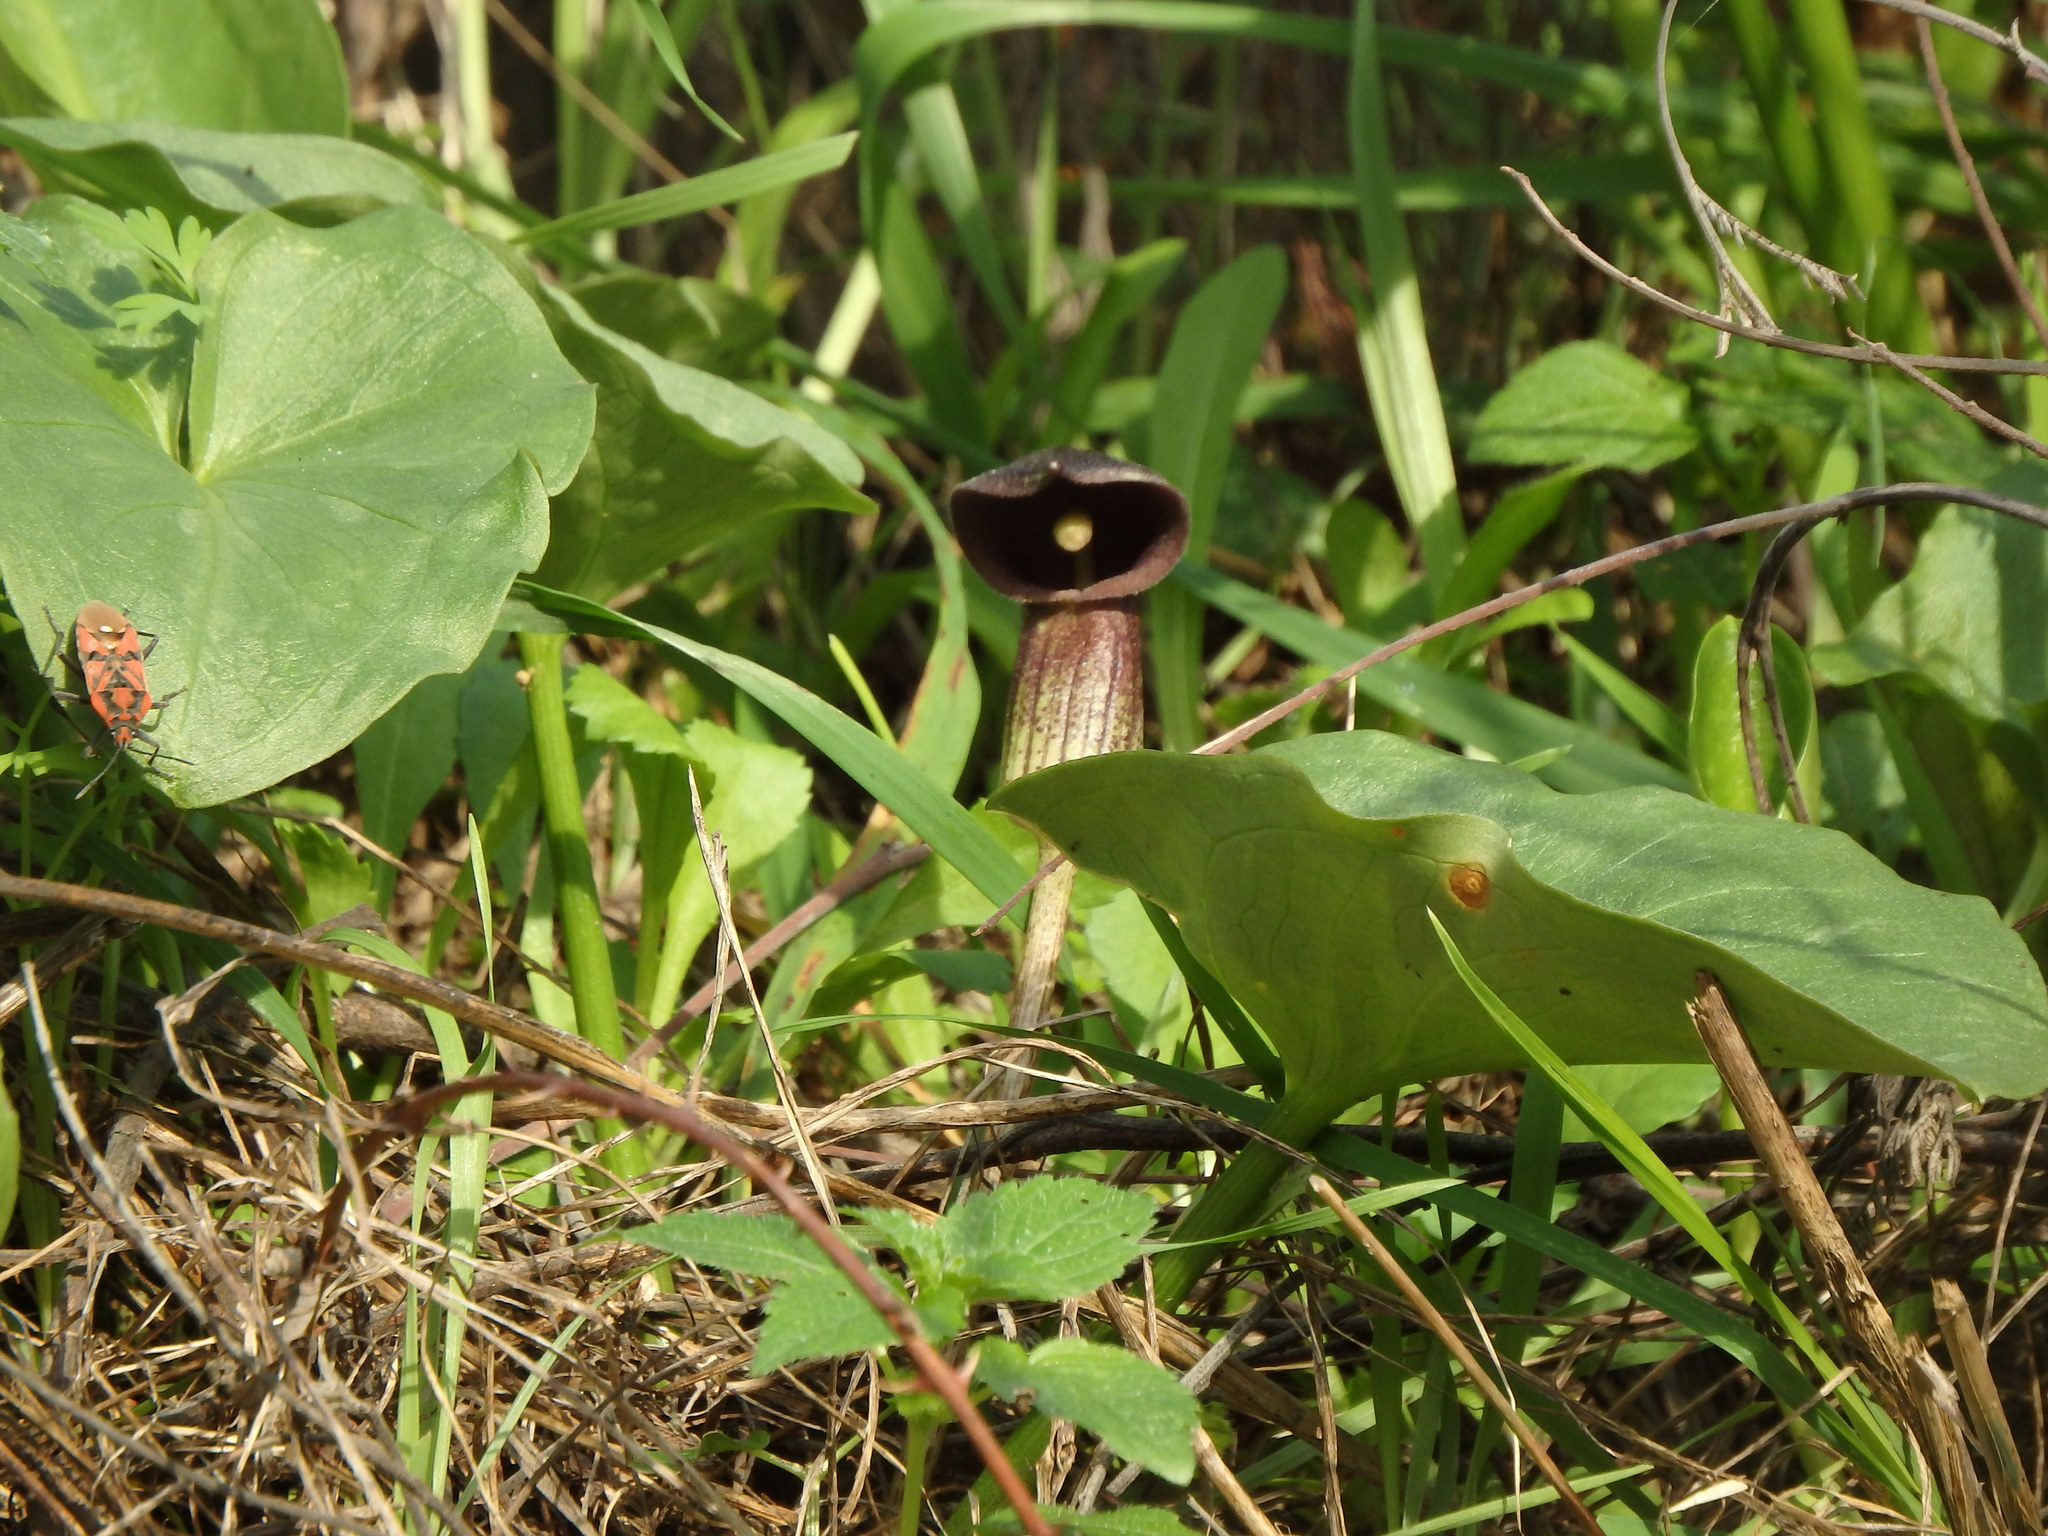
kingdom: Plantae
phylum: Tracheophyta
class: Liliopsida
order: Alismatales
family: Araceae
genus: Arisarum
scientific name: Arisarum simorrhinum
